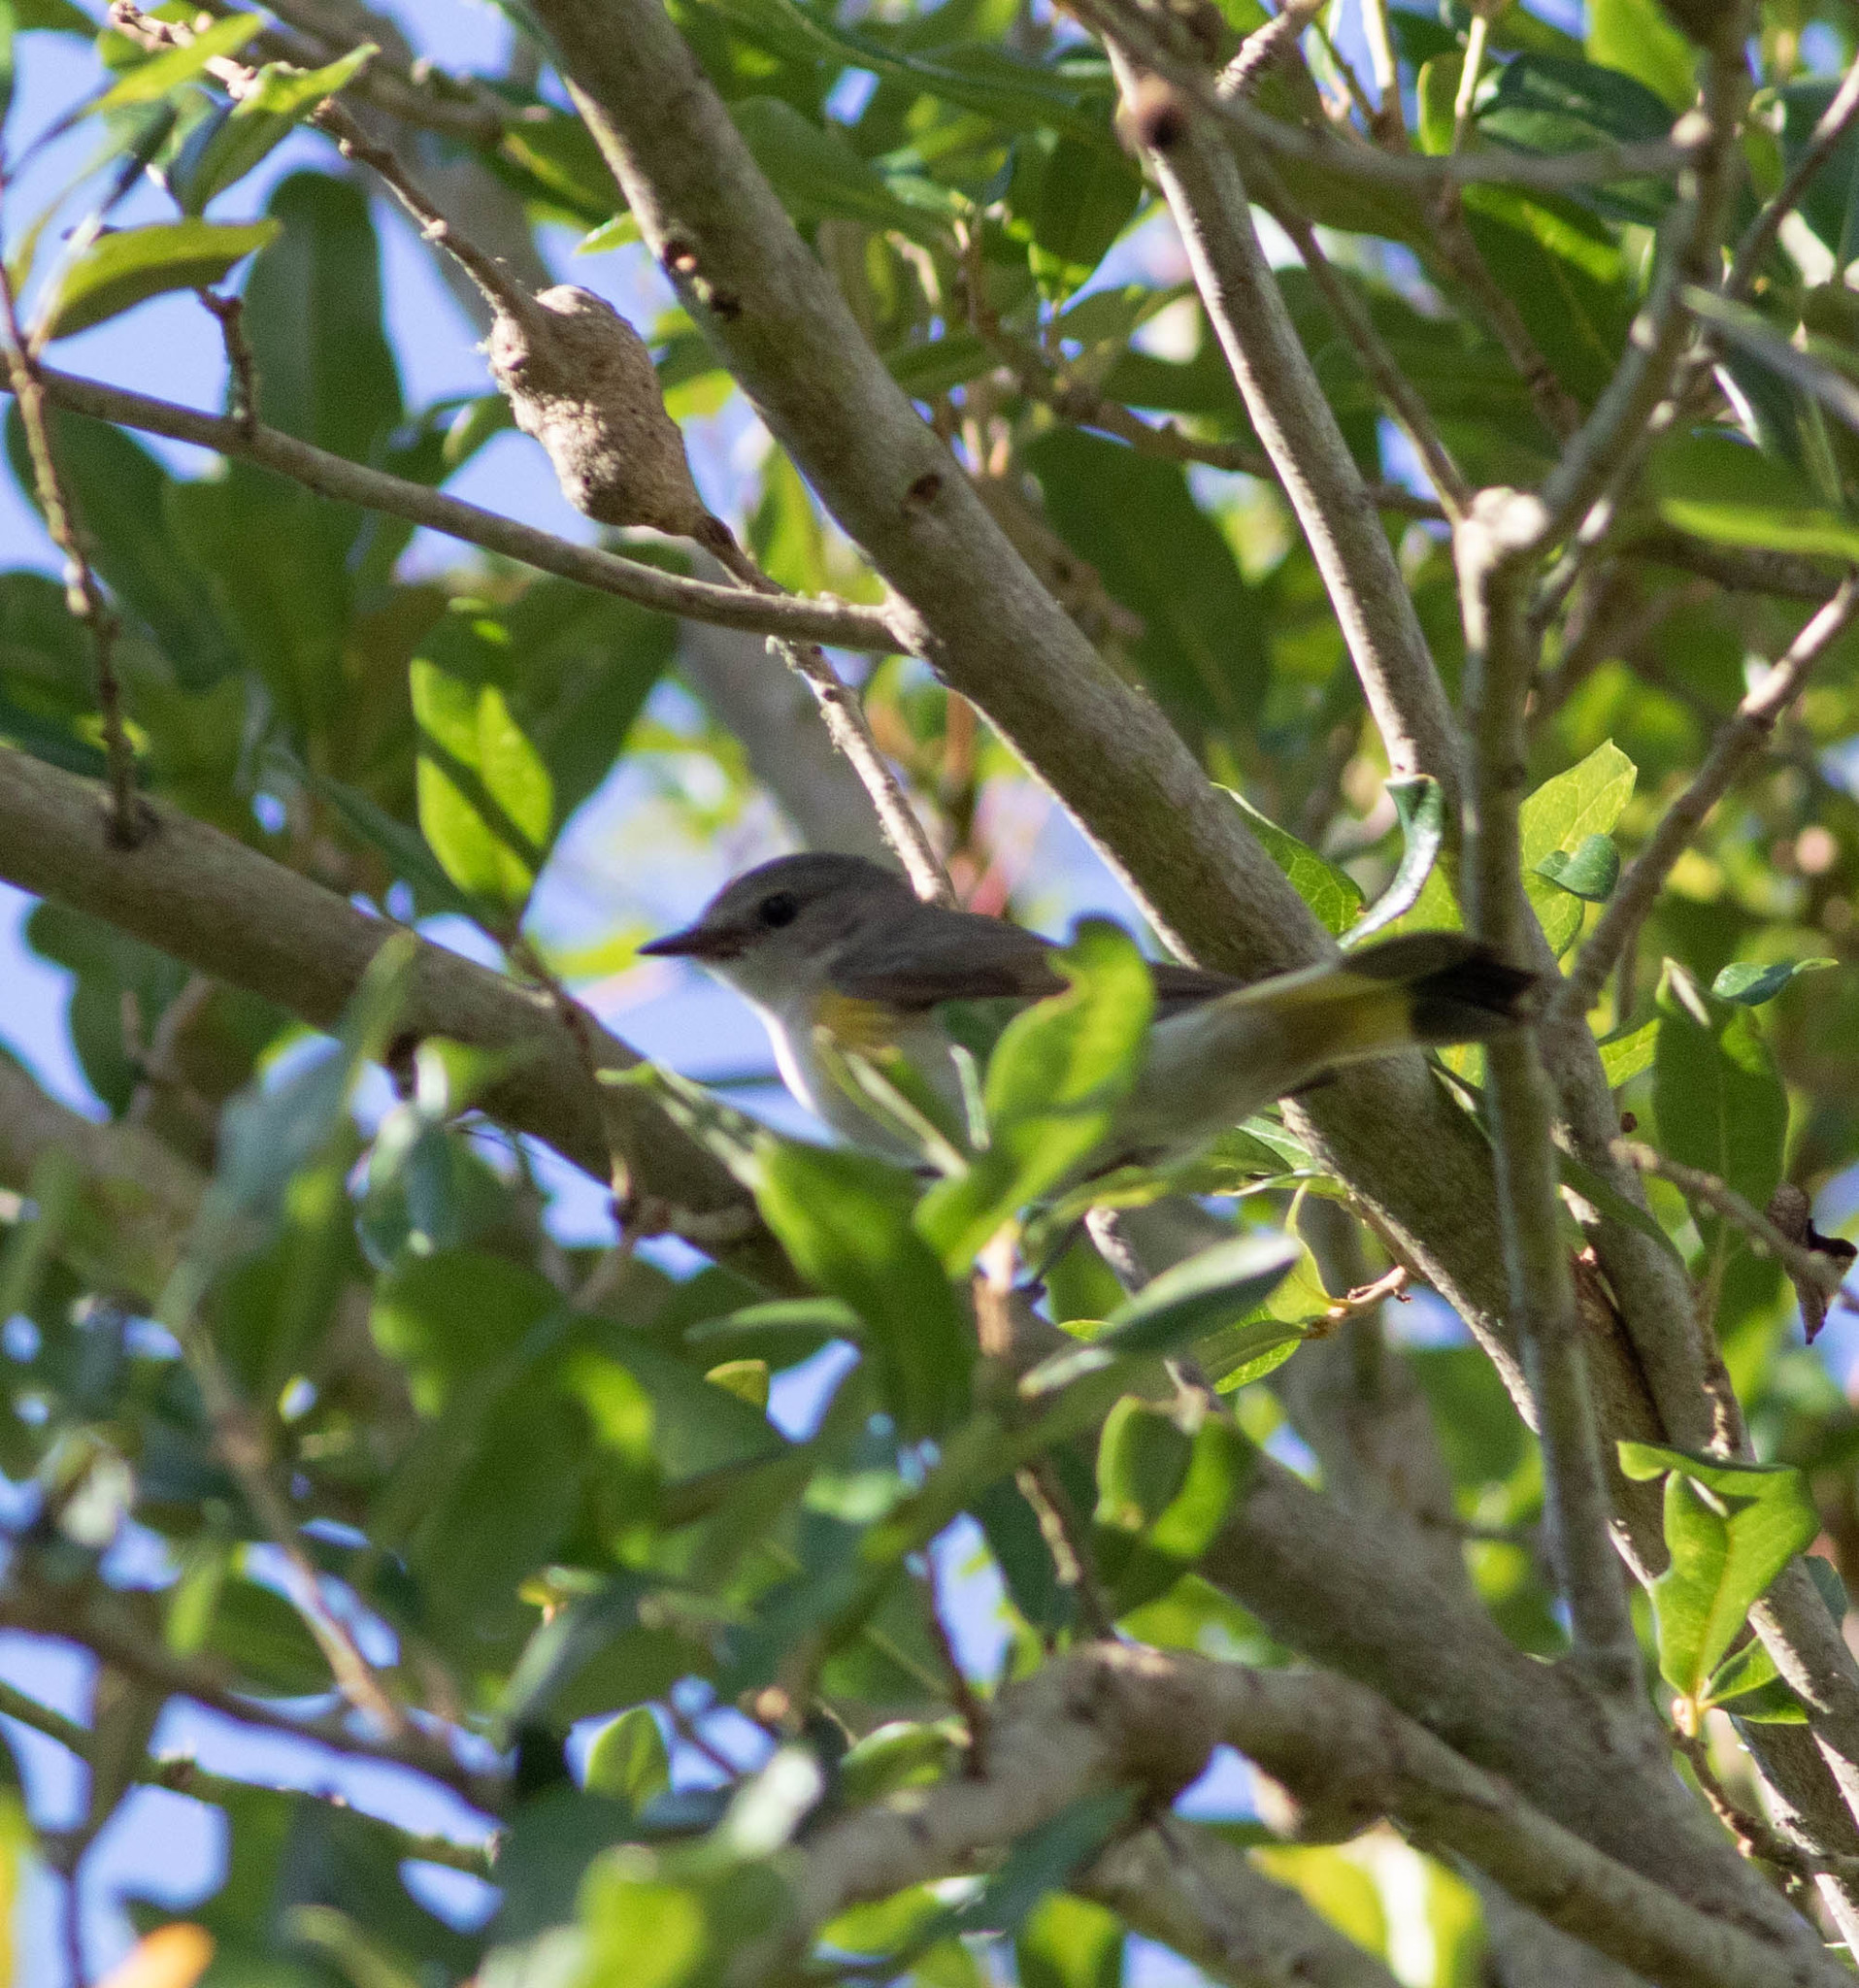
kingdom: Animalia
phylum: Chordata
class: Aves
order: Passeriformes
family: Parulidae
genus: Setophaga
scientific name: Setophaga ruticilla
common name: American redstart
